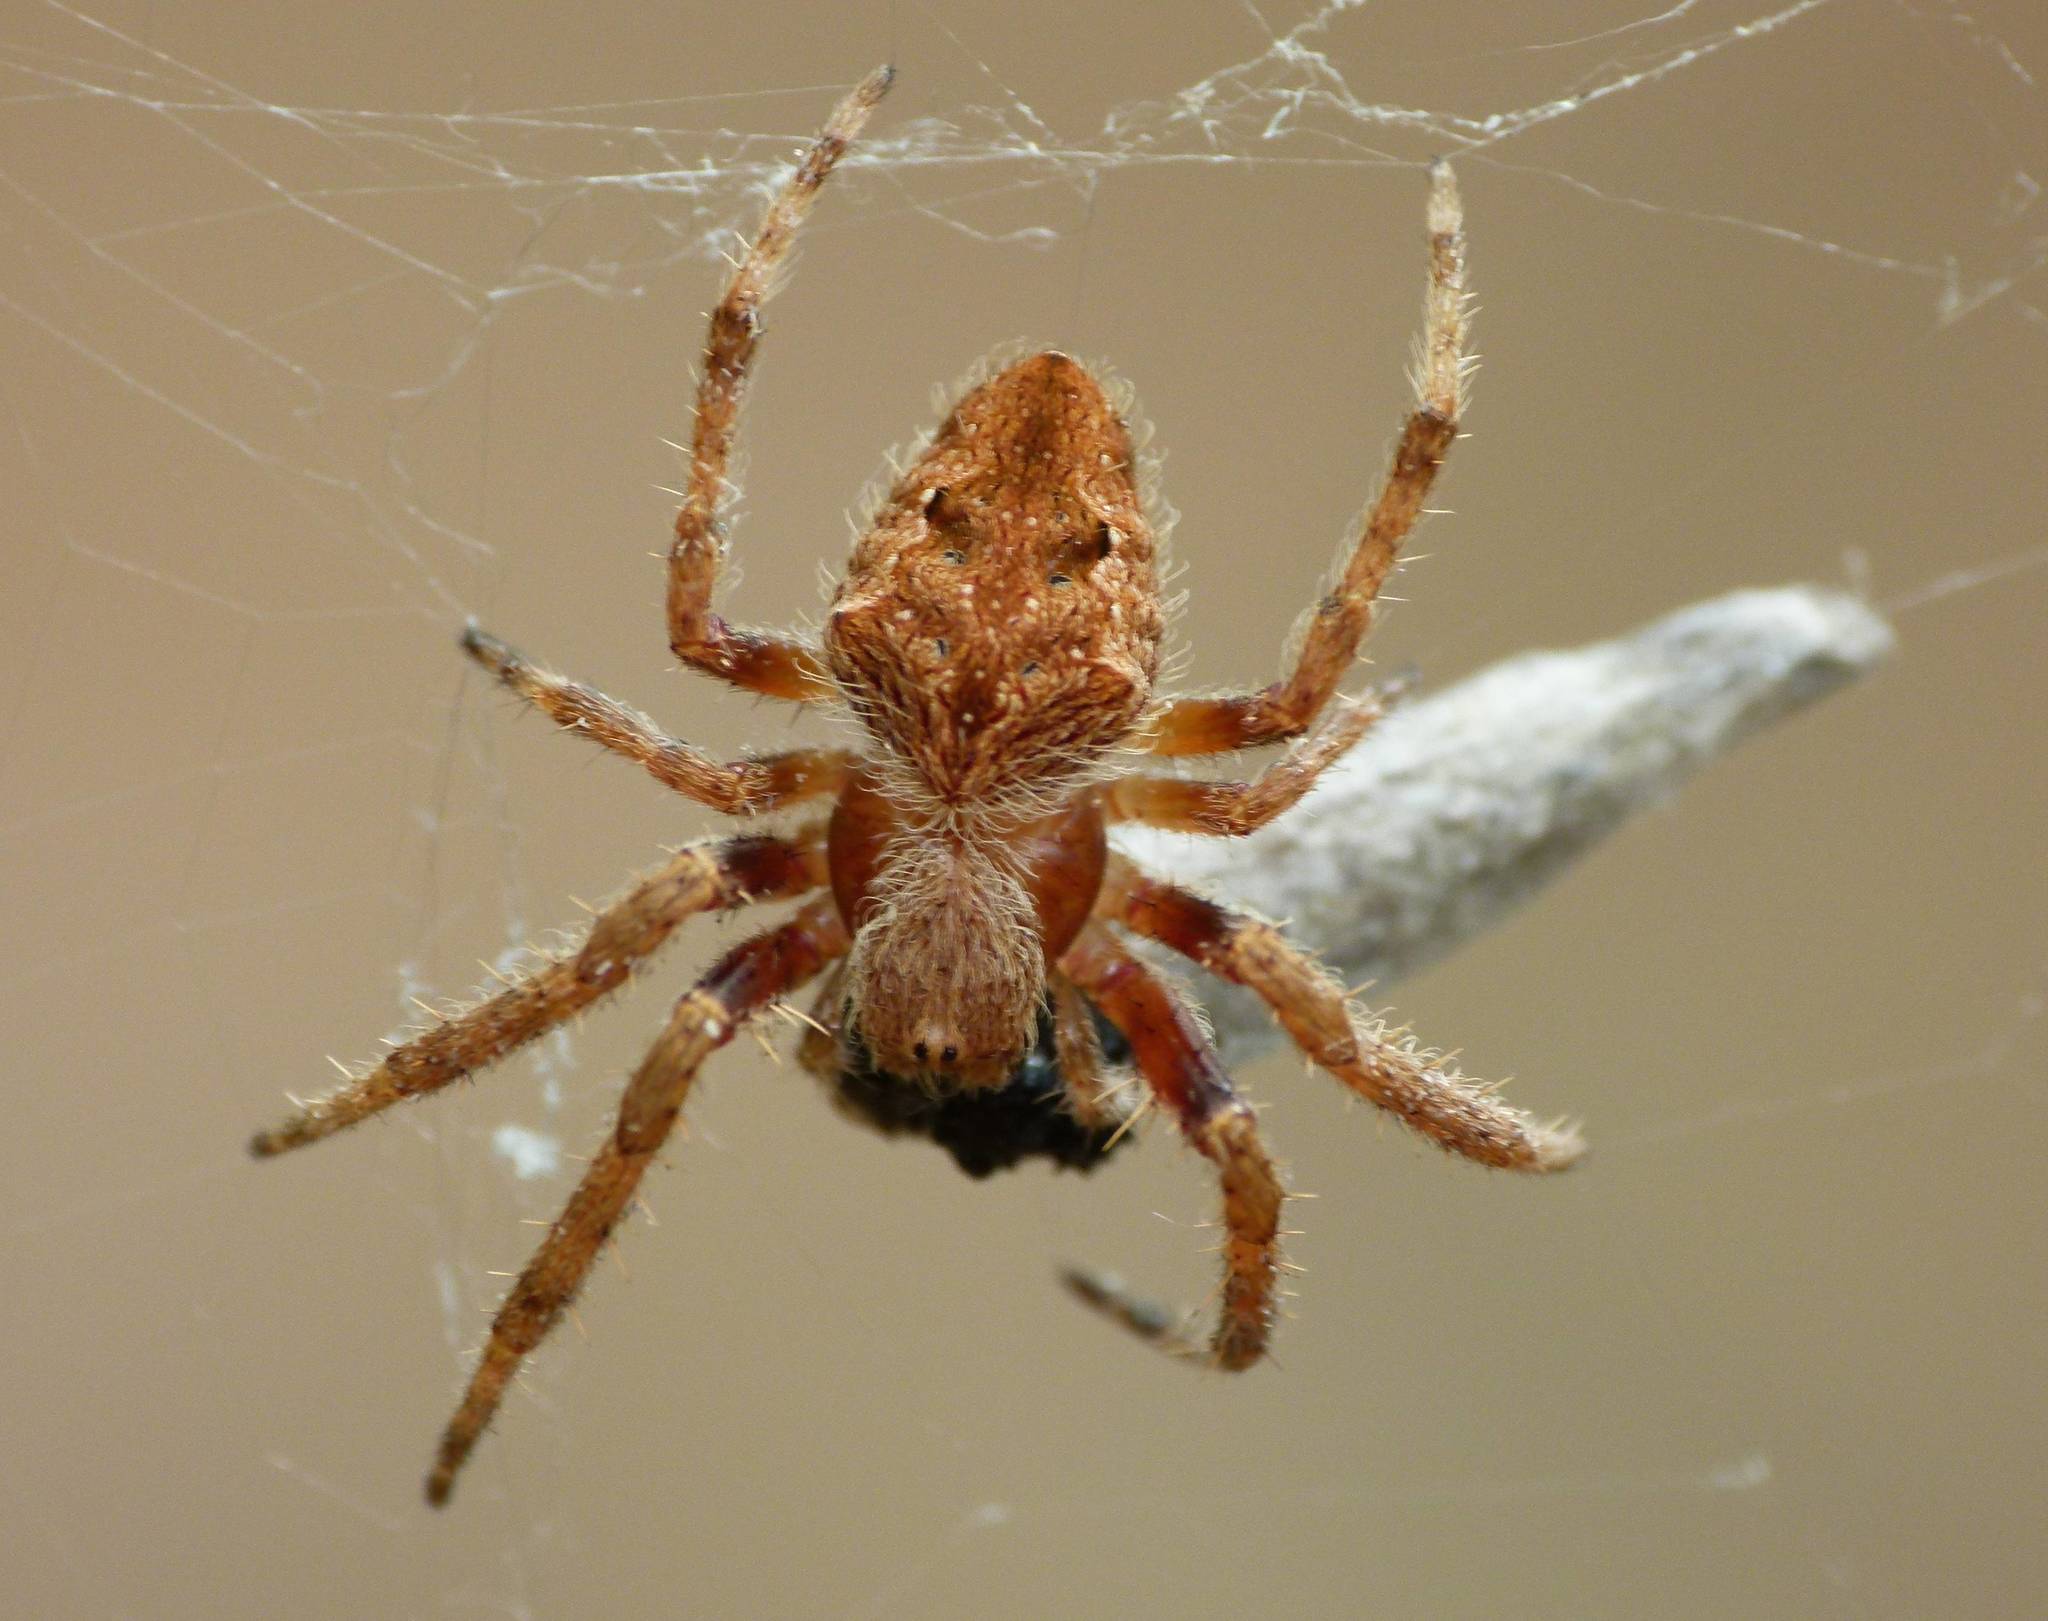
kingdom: Animalia
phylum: Arthropoda
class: Arachnida
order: Araneae
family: Araneidae
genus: Hortophora
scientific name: Hortophora transmarina
